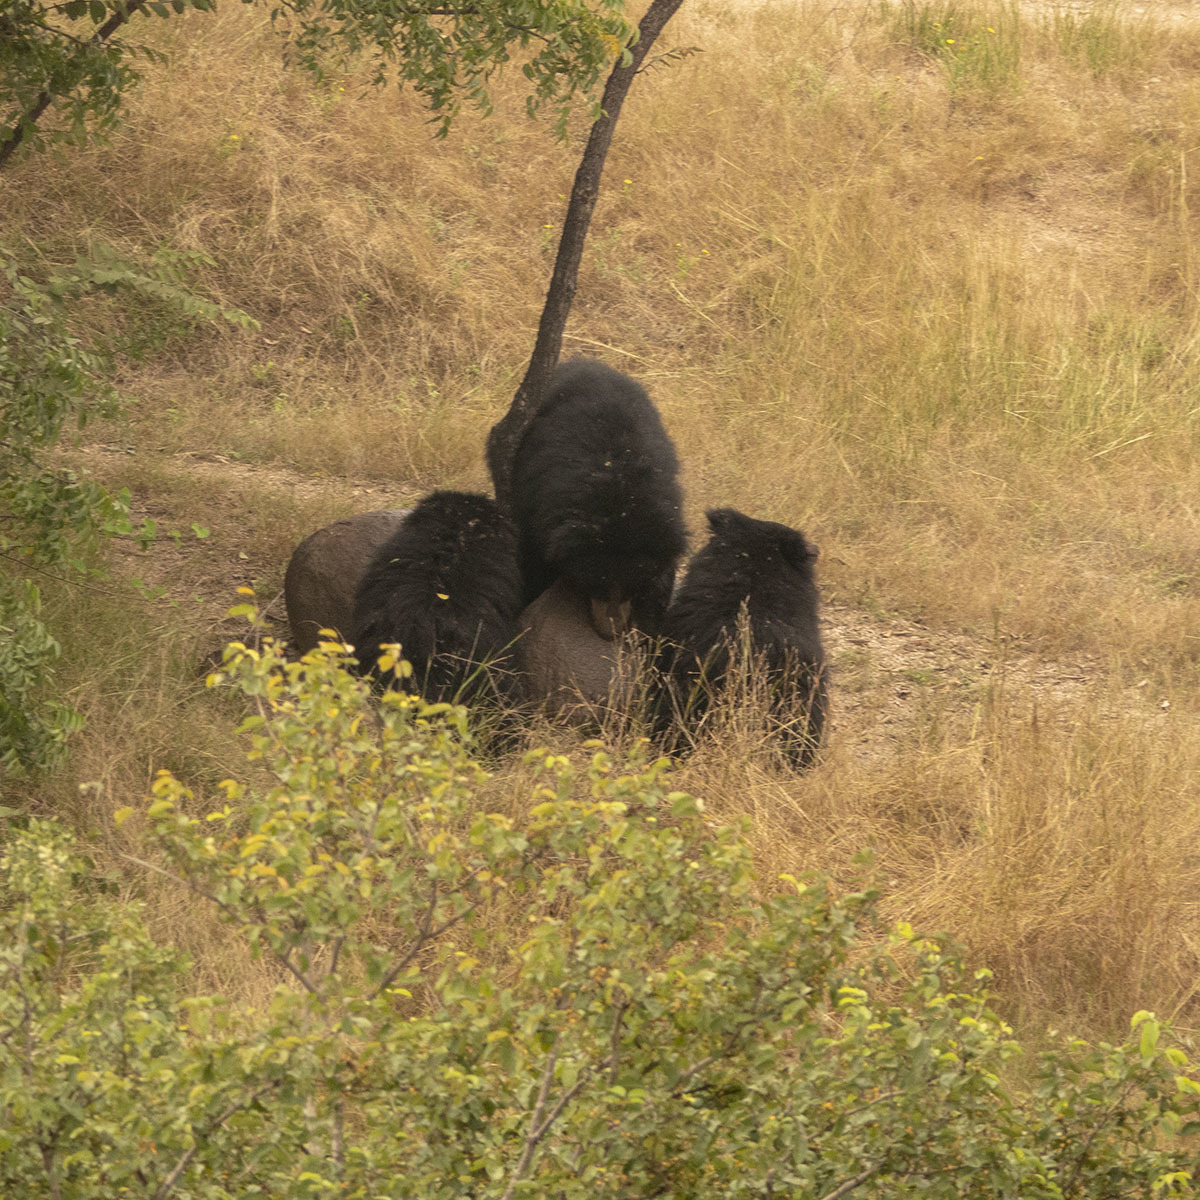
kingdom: Animalia
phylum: Chordata
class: Mammalia
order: Carnivora
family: Ursidae
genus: Melursus
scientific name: Melursus ursinus
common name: Sloth bear
